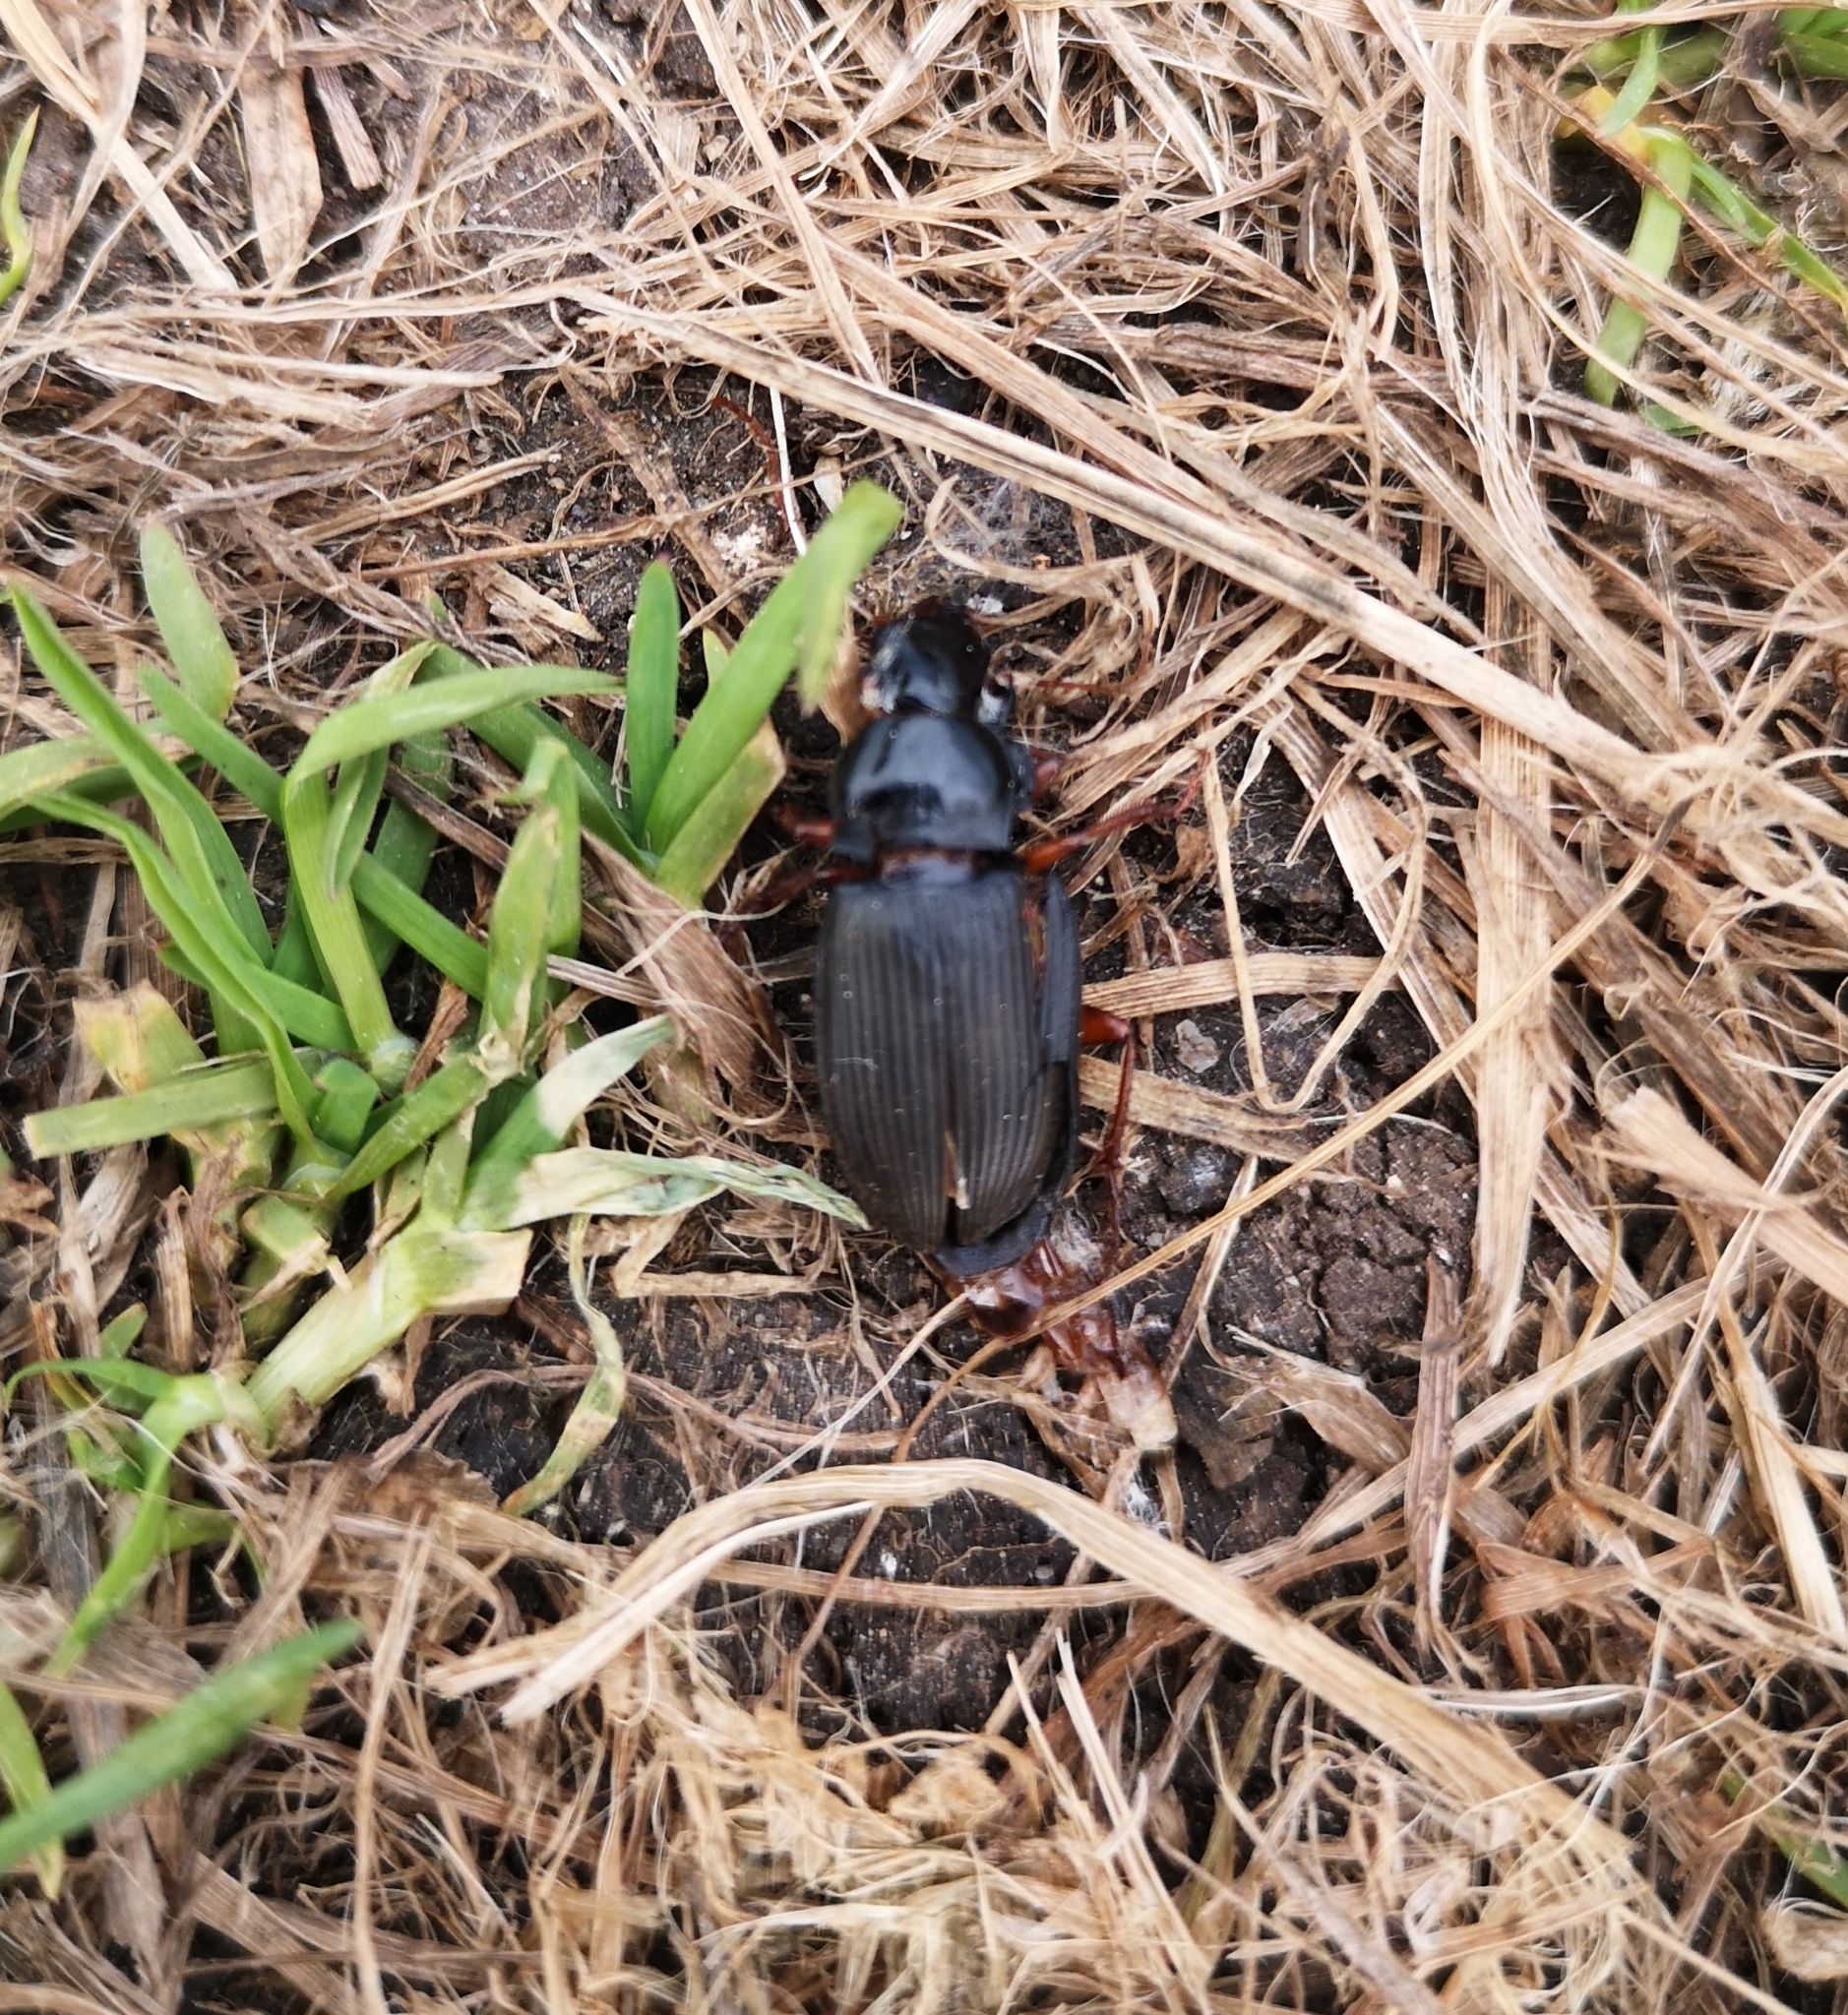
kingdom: Animalia
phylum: Arthropoda
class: Insecta
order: Coleoptera
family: Carabidae
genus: Harpalus
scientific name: Harpalus rufipes
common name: Strawberry harp ground beetle
